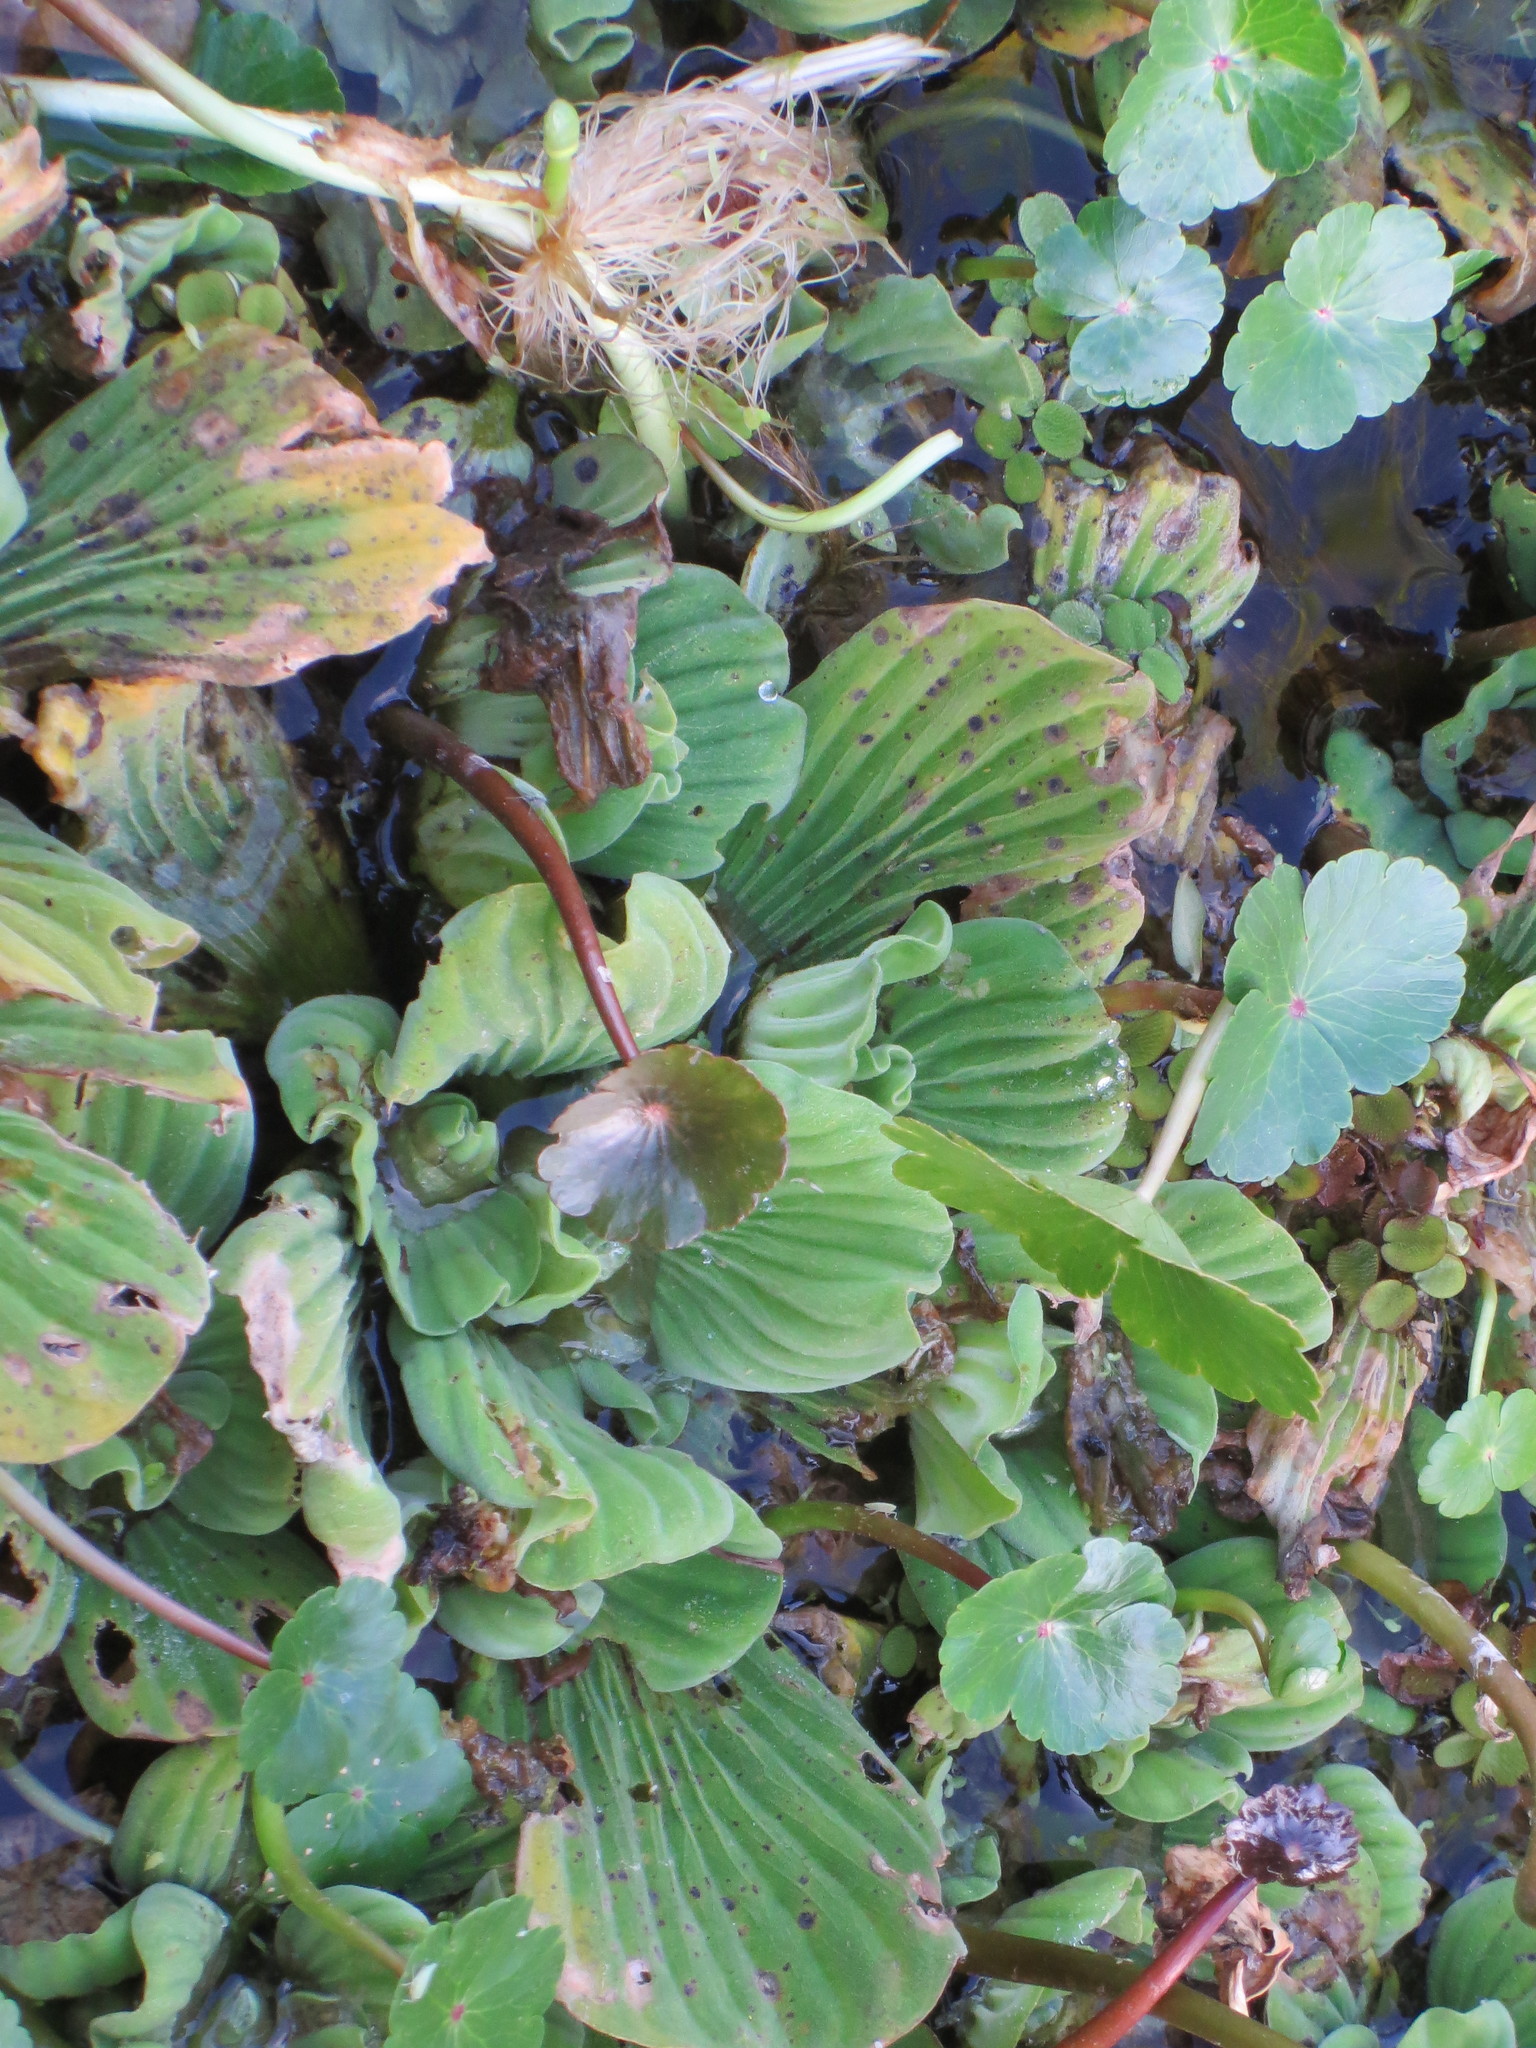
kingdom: Plantae
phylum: Tracheophyta
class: Liliopsida
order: Alismatales
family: Araceae
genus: Pistia
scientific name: Pistia stratiotes
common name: Water lettuce
